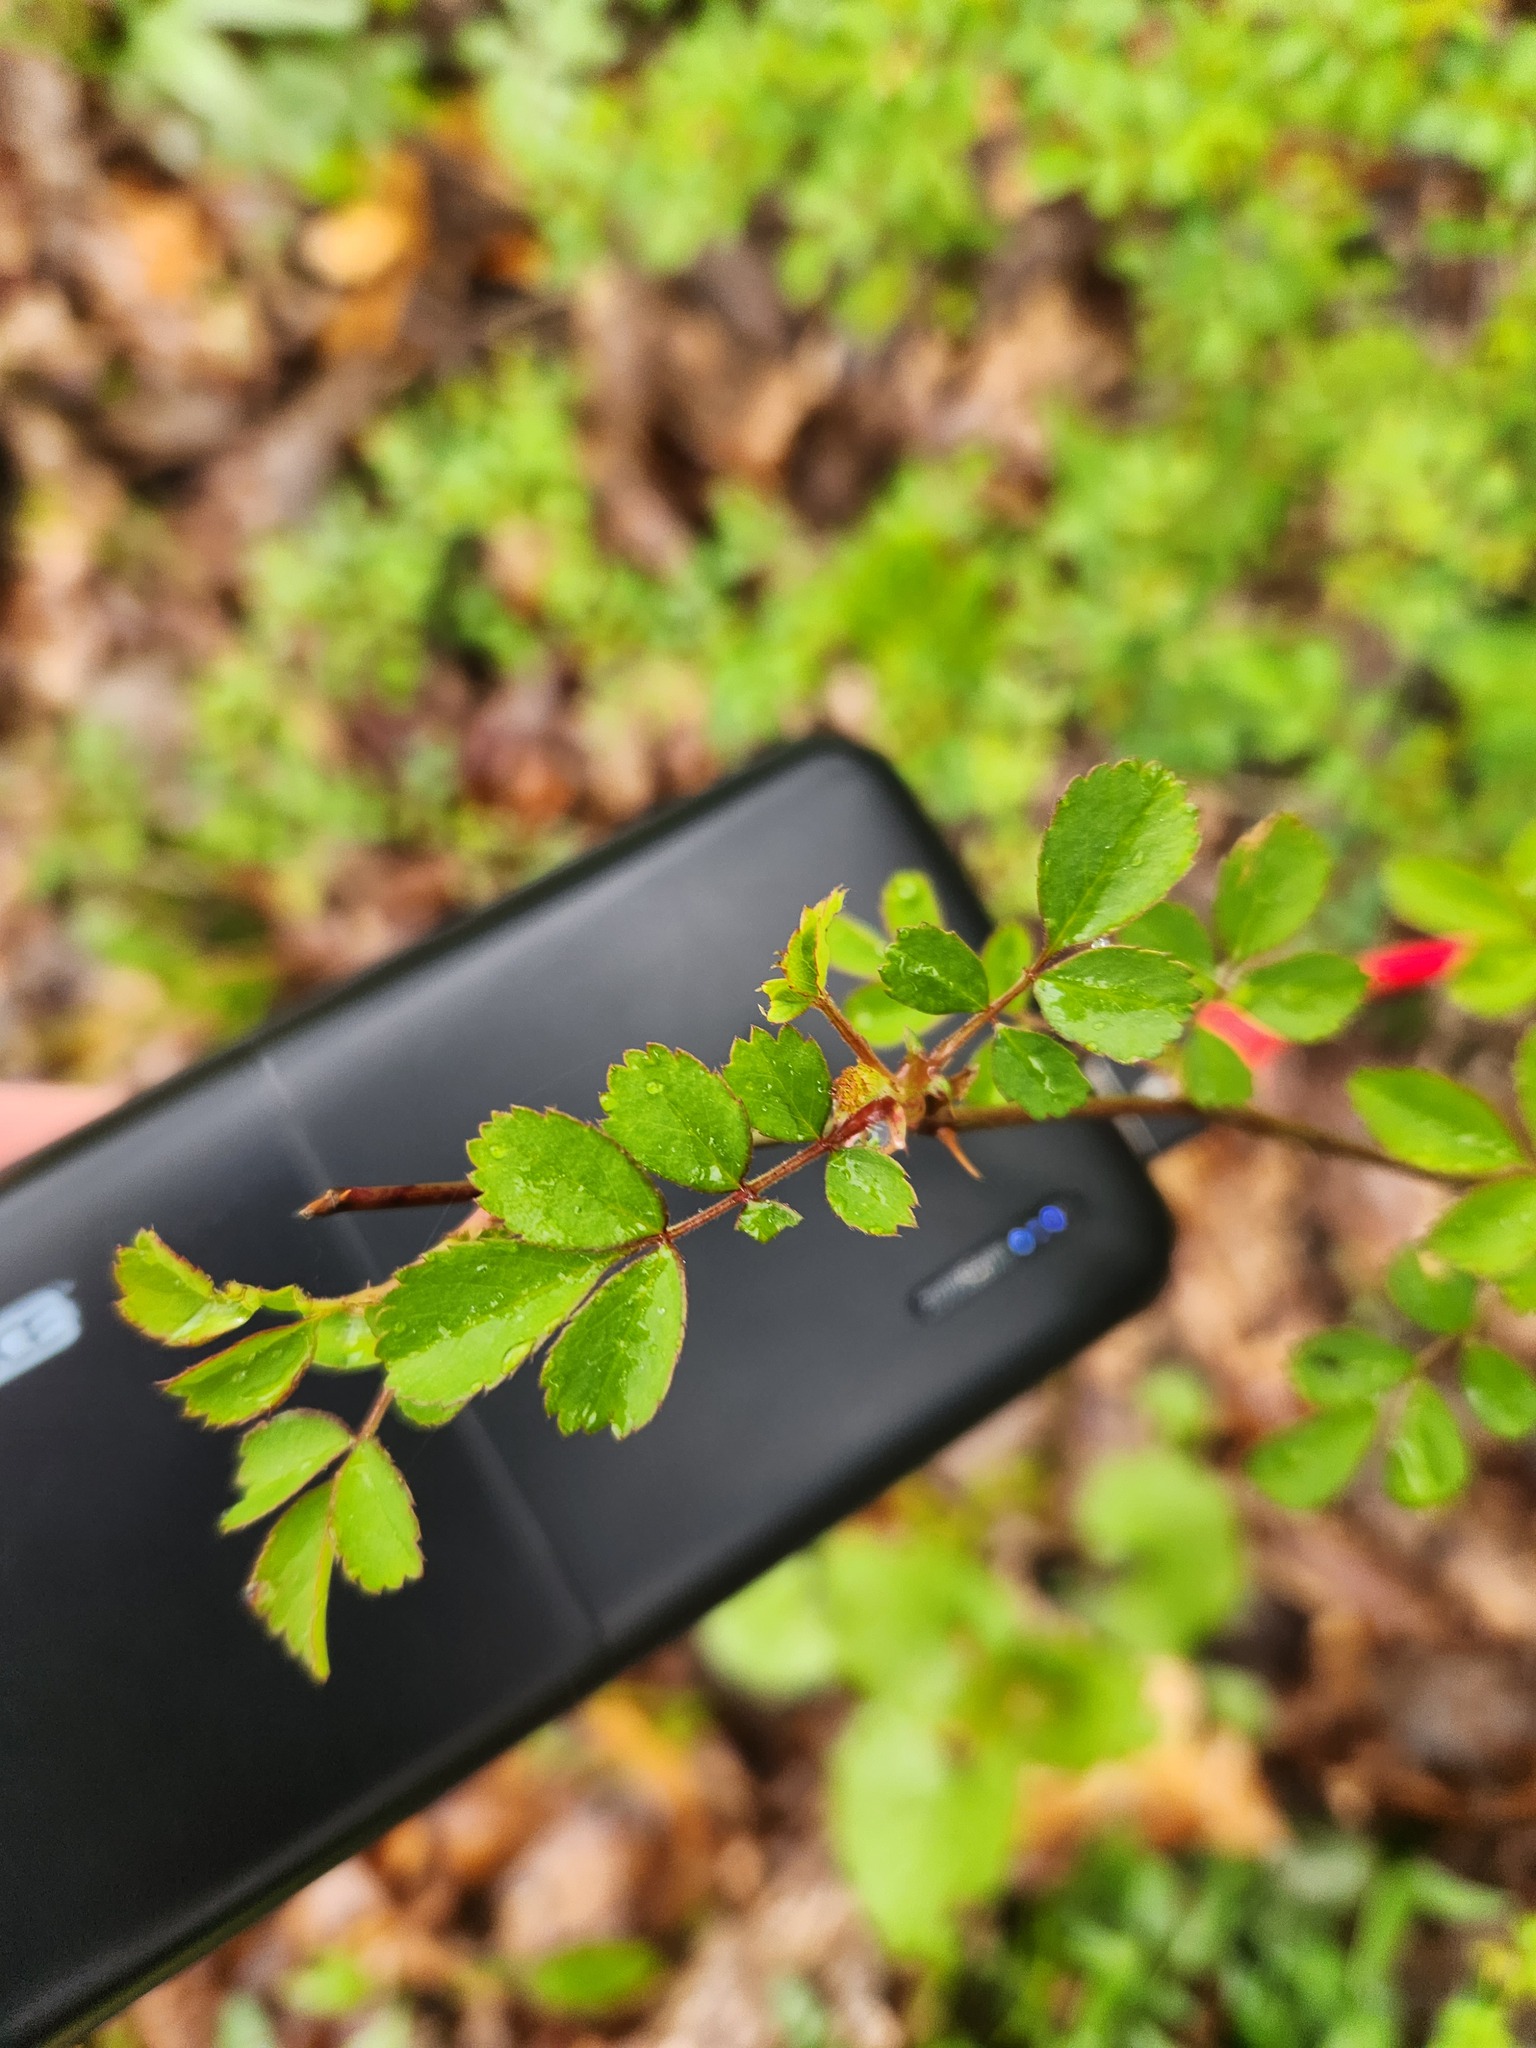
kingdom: Plantae
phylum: Tracheophyta
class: Magnoliopsida
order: Rosales
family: Rosaceae
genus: Rosa
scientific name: Rosa multiflora
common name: Multiflora rose
